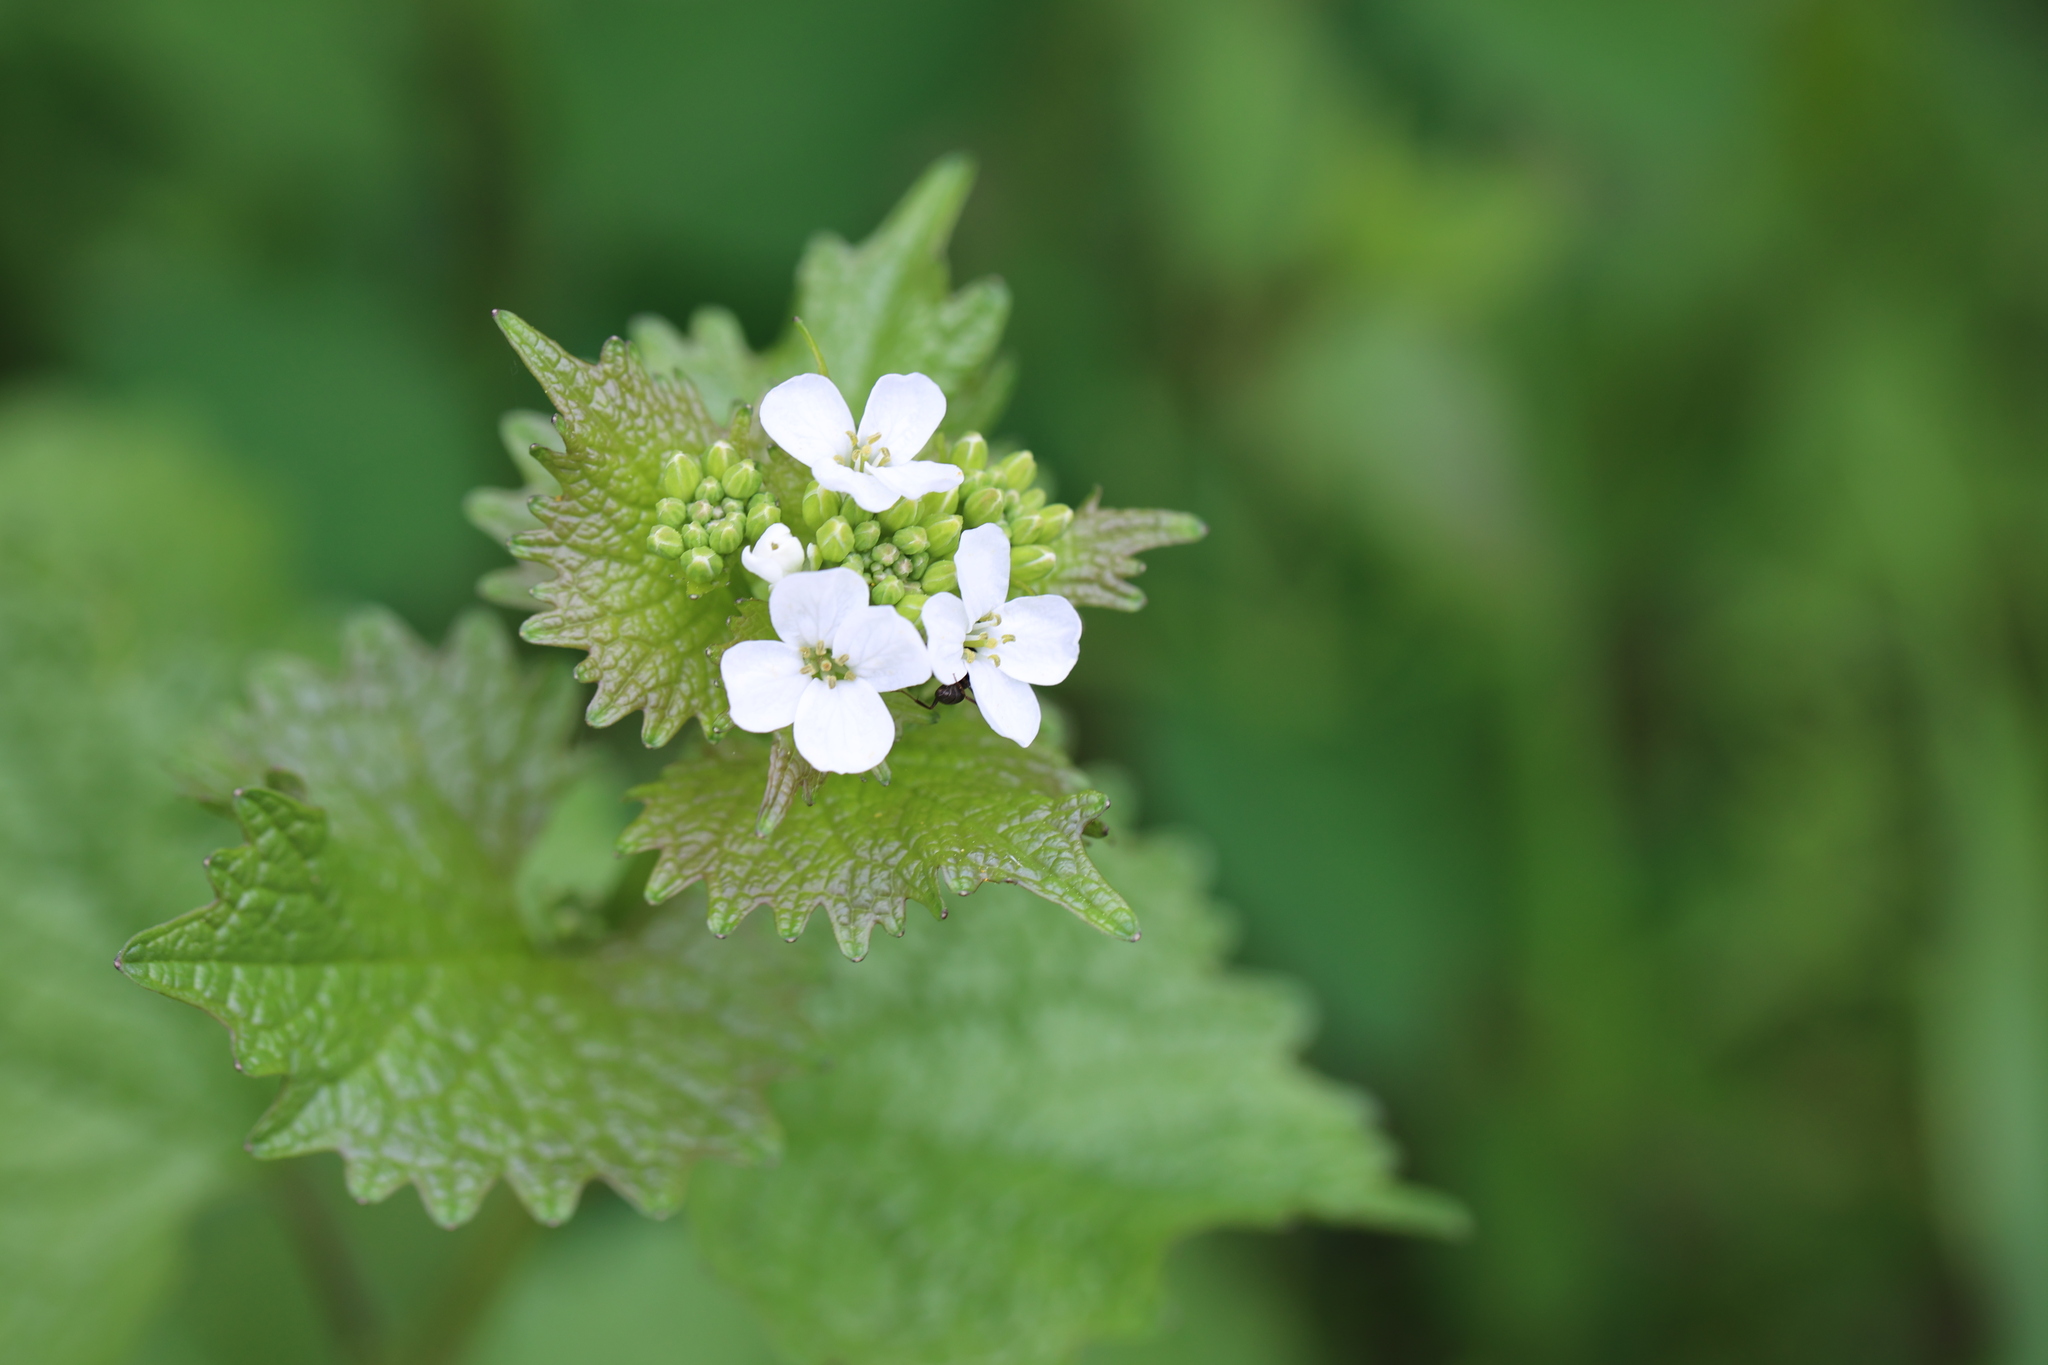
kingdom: Plantae
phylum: Tracheophyta
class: Magnoliopsida
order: Brassicales
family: Brassicaceae
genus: Alliaria
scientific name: Alliaria petiolata
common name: Garlic mustard
